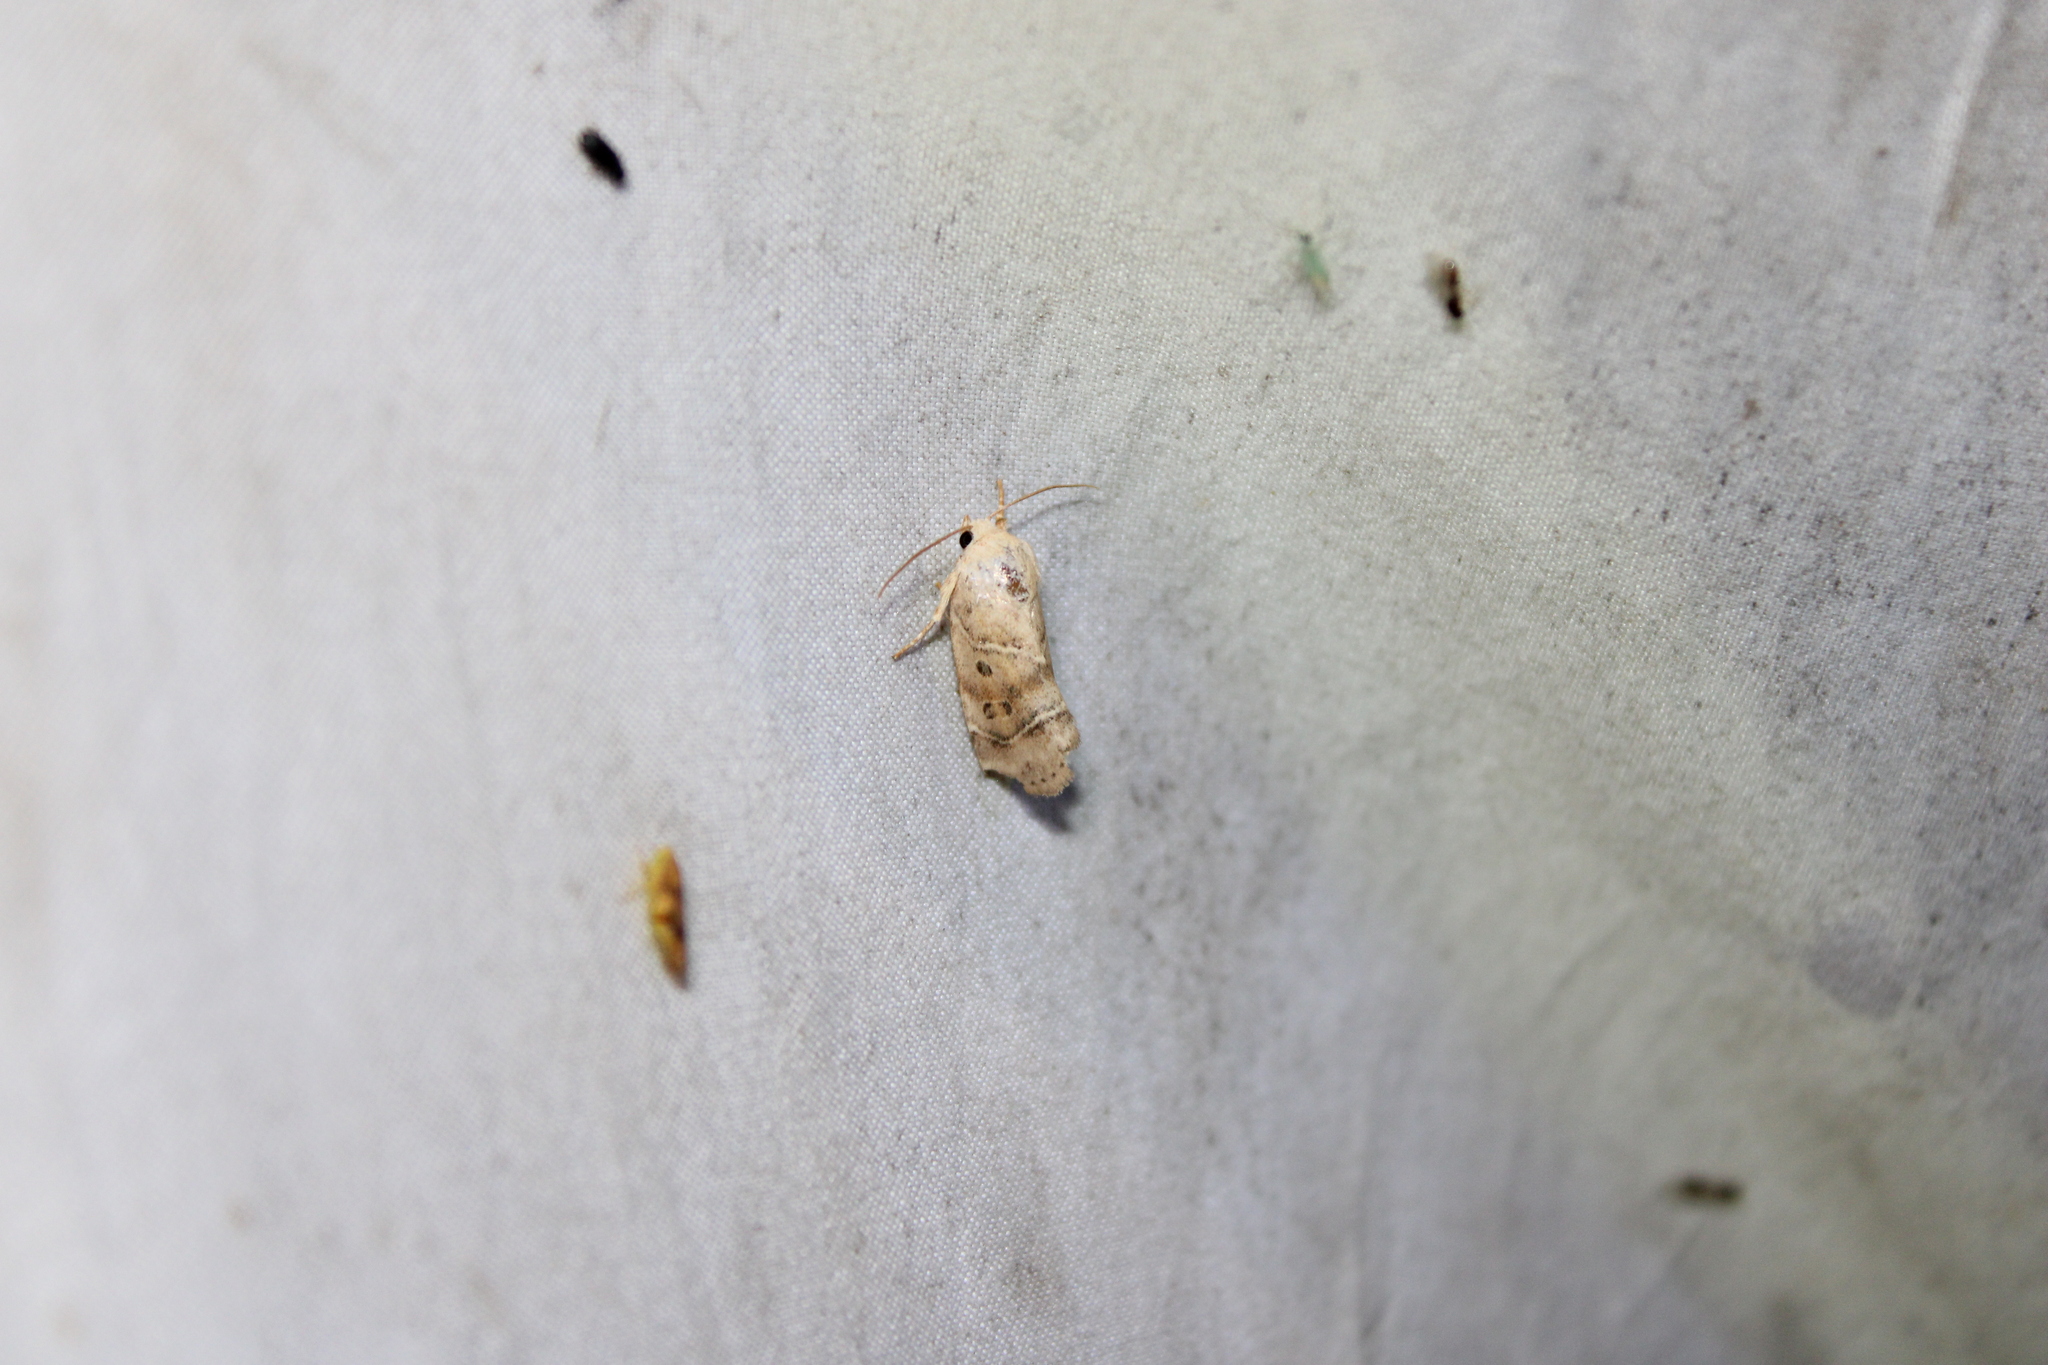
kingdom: Animalia
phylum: Arthropoda
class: Insecta
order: Lepidoptera
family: Noctuidae
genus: Cosmia
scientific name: Cosmia calami
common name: American dun-bar moth
